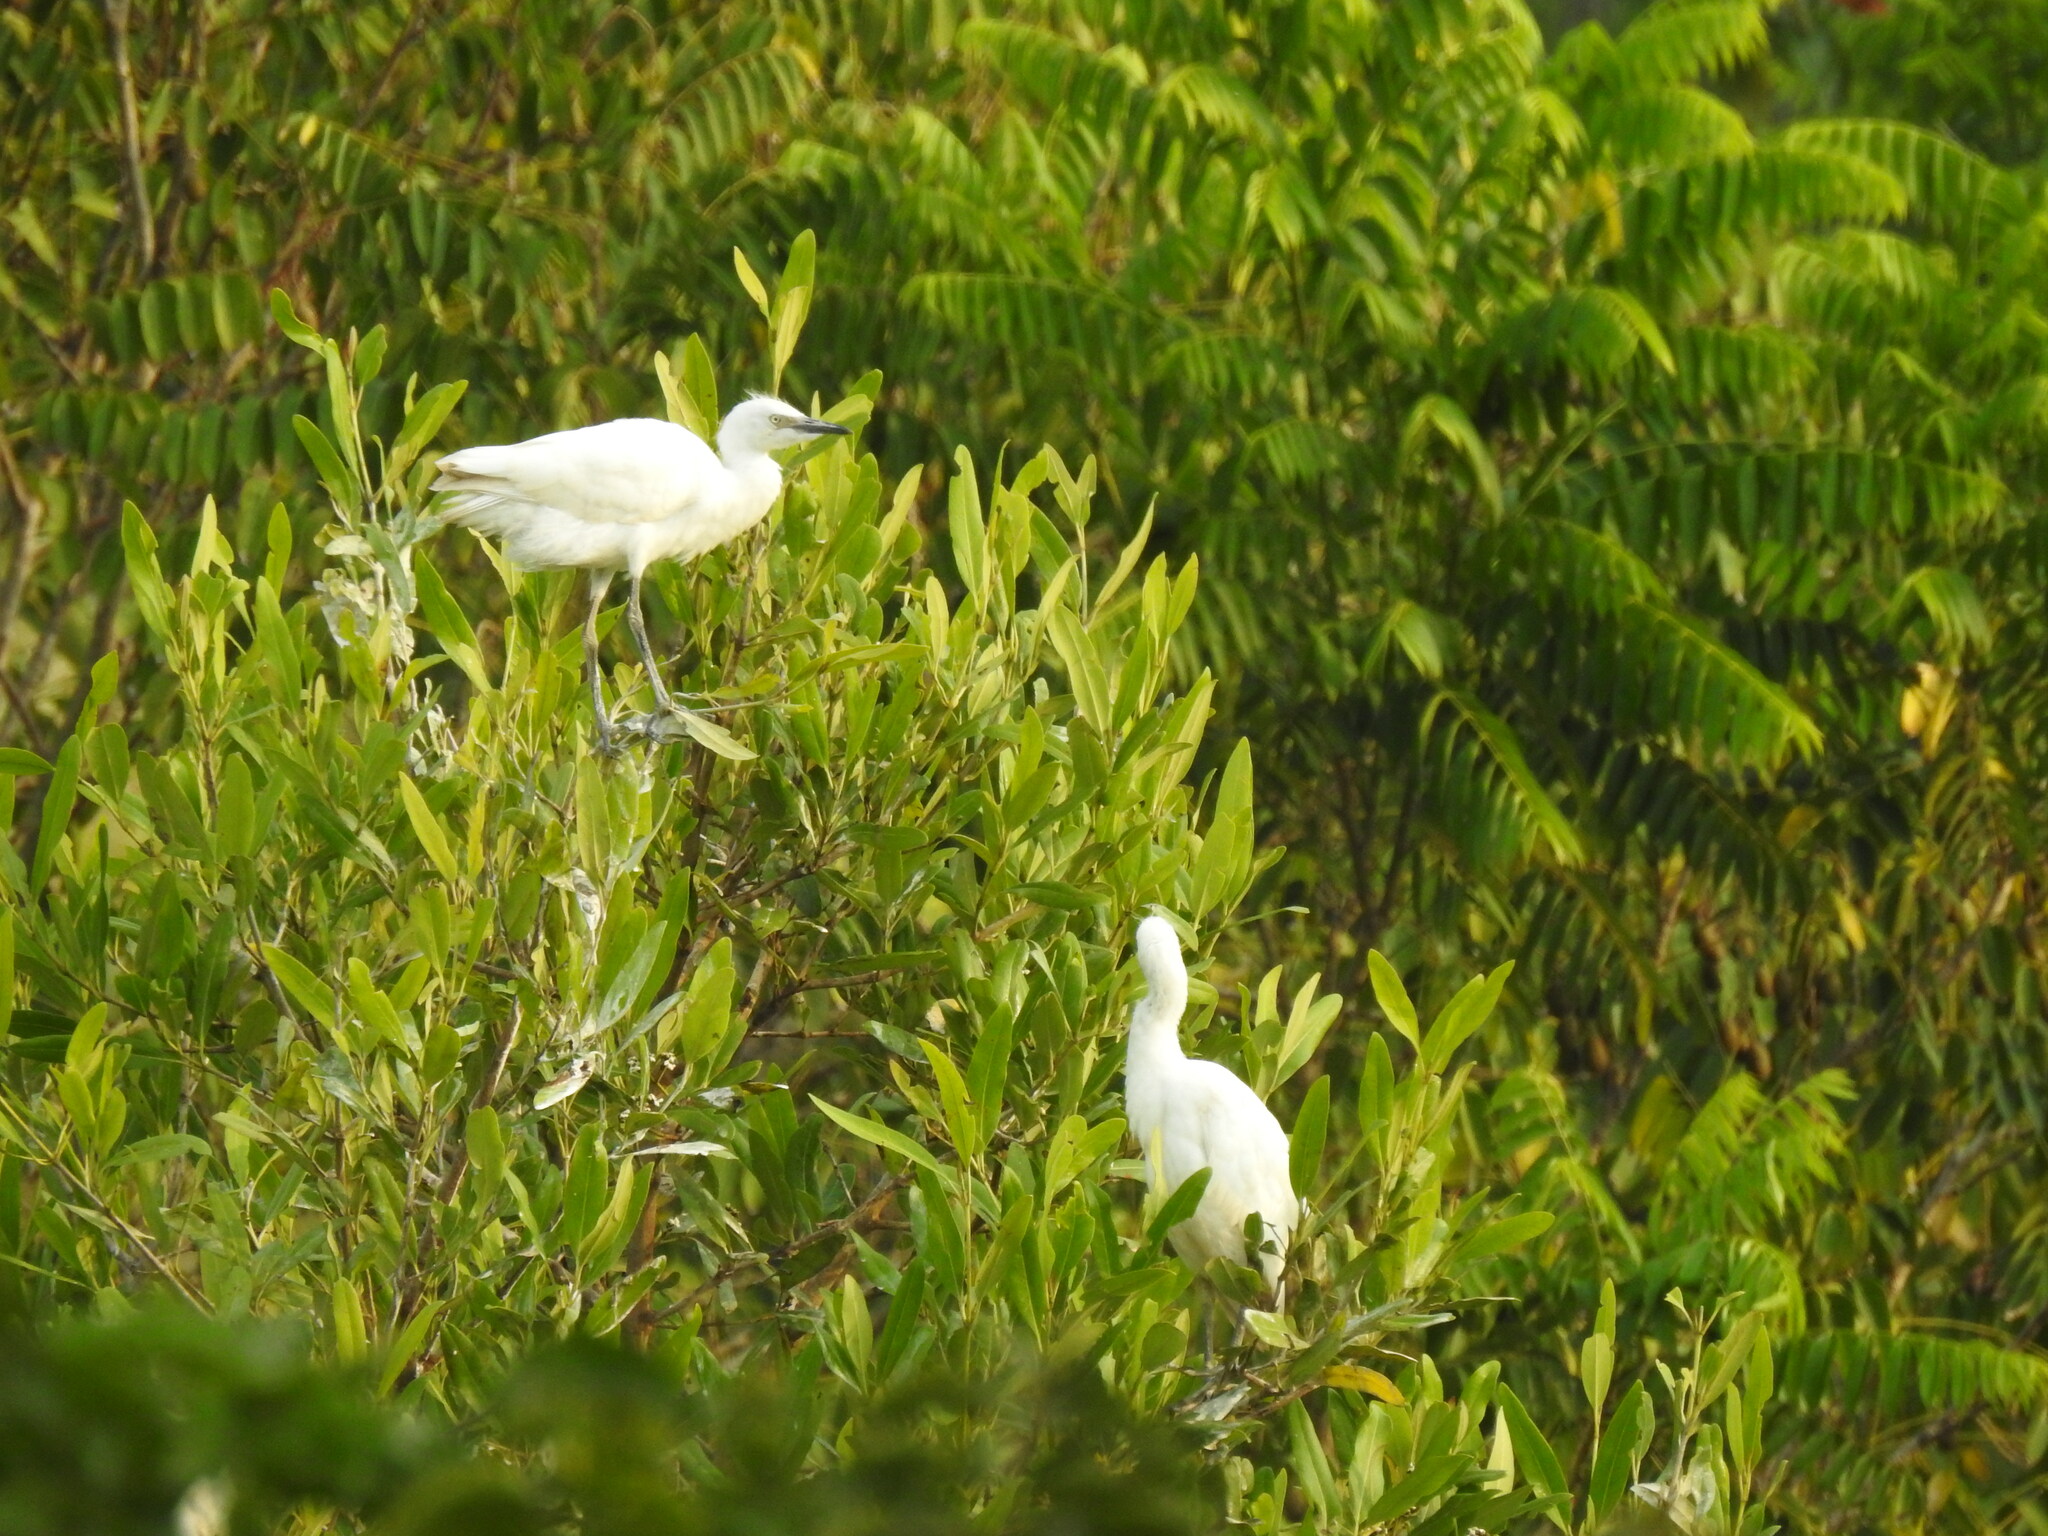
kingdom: Animalia
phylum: Chordata
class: Aves
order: Pelecaniformes
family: Ardeidae
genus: Bubulcus
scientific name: Bubulcus ibis
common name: Cattle egret
